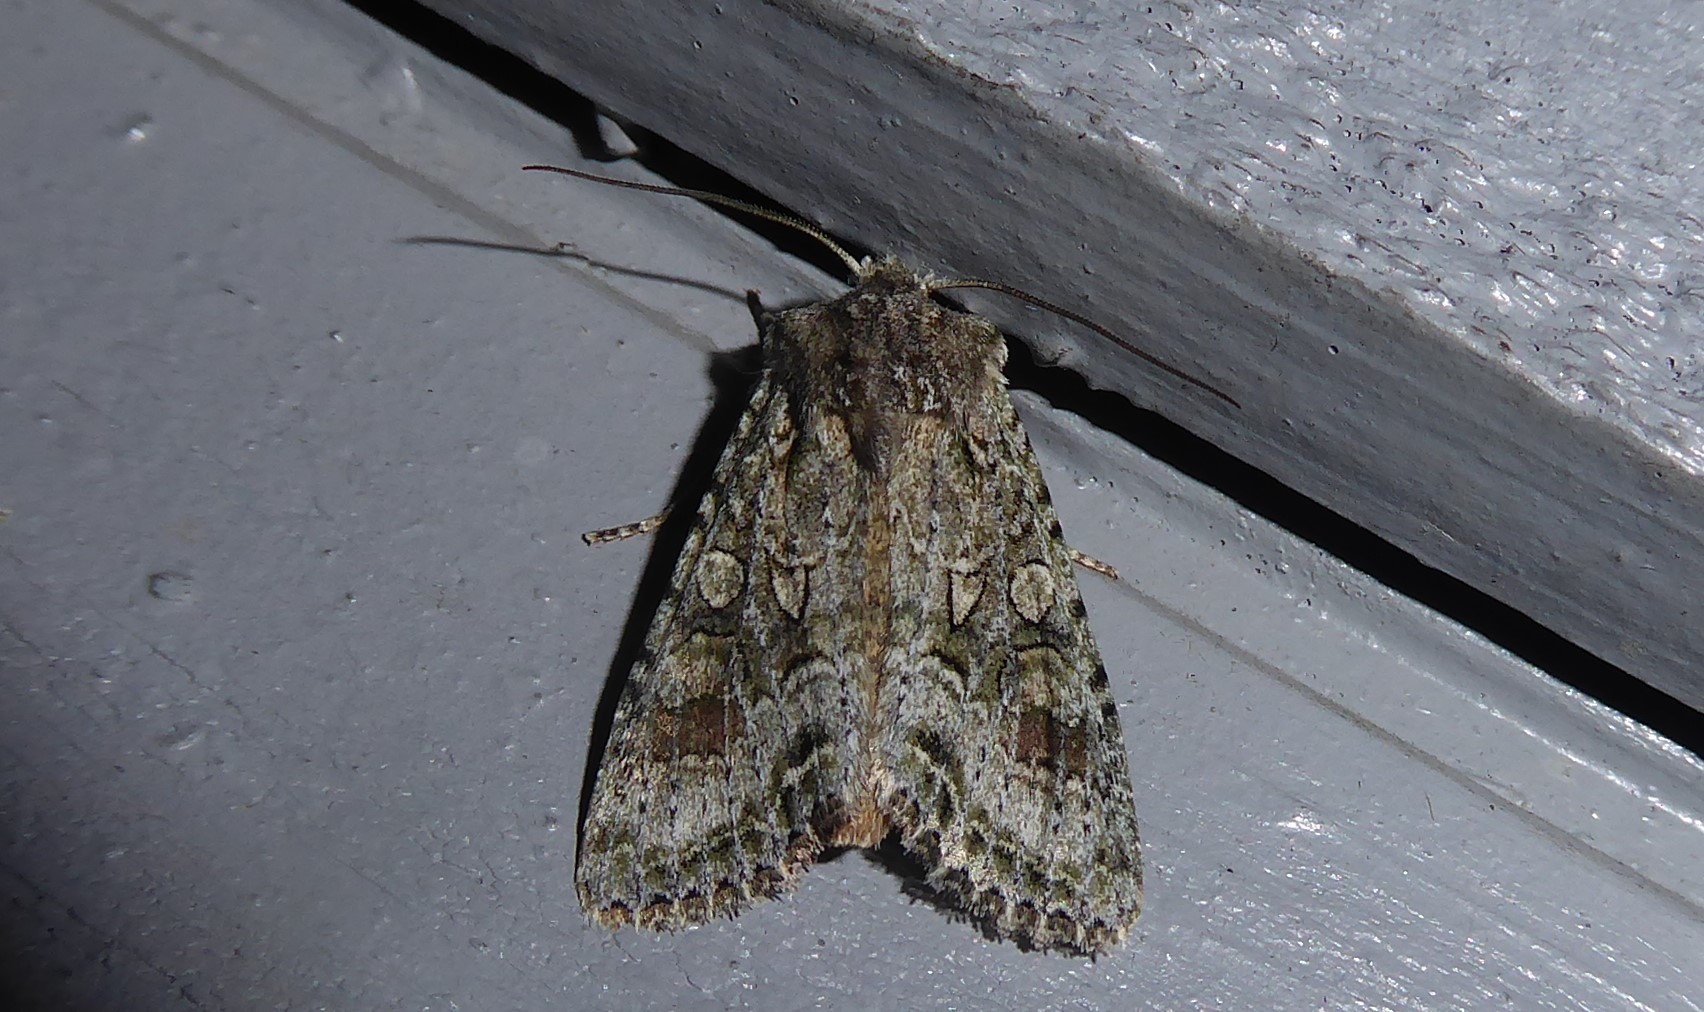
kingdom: Animalia
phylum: Arthropoda
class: Insecta
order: Lepidoptera
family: Noctuidae
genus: Ichneutica
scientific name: Ichneutica mutans
